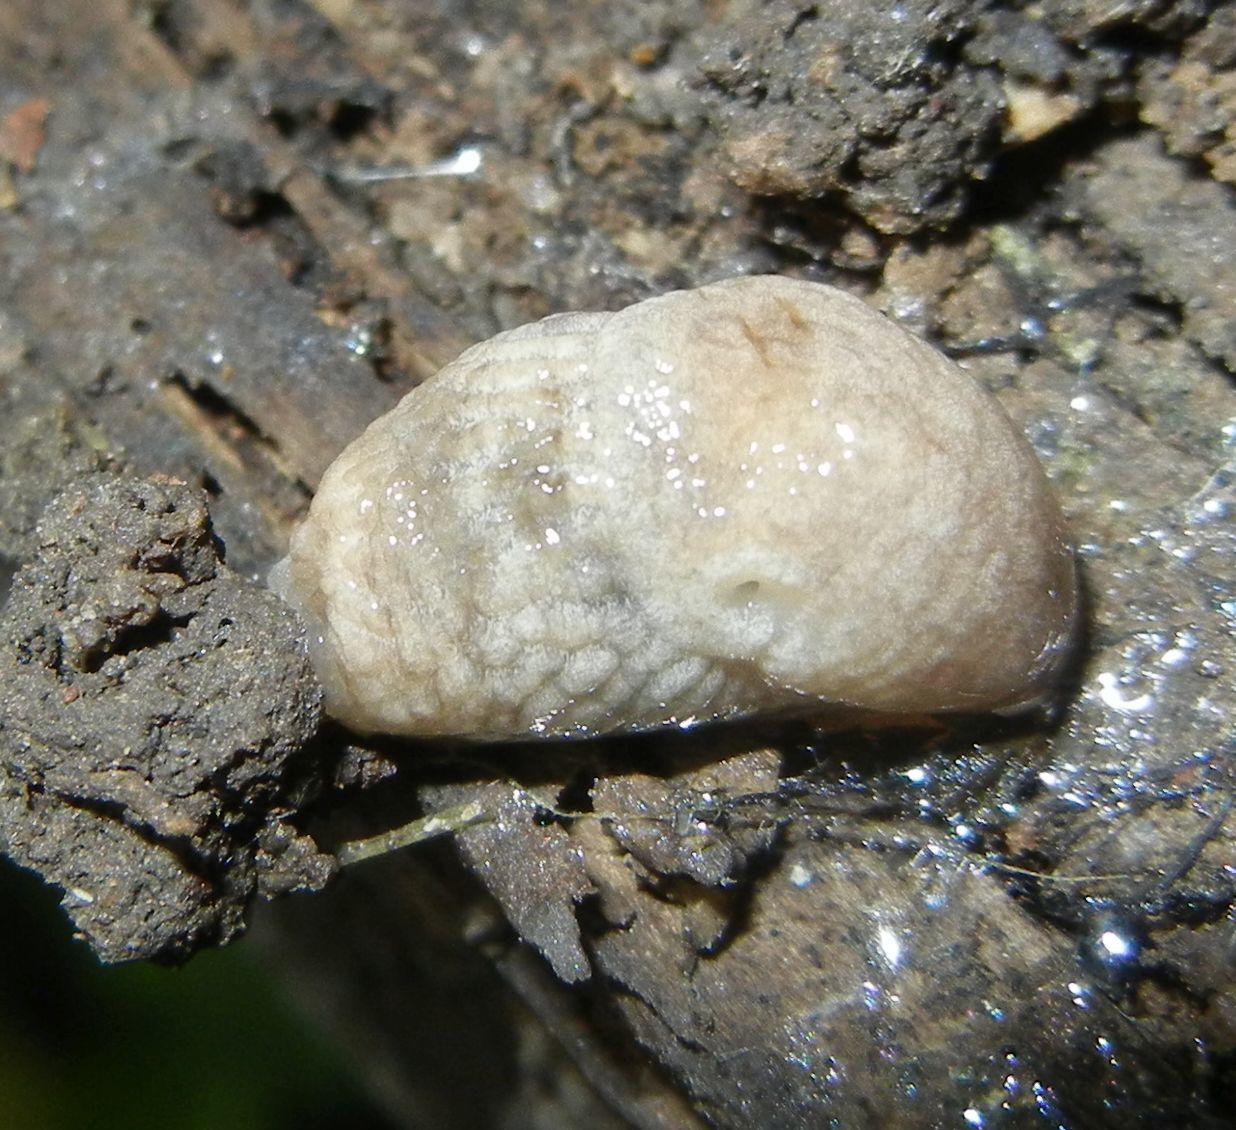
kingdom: Animalia
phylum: Mollusca
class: Gastropoda
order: Stylommatophora
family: Agriolimacidae
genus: Deroceras
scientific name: Deroceras reticulatum
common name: Gray field slug
